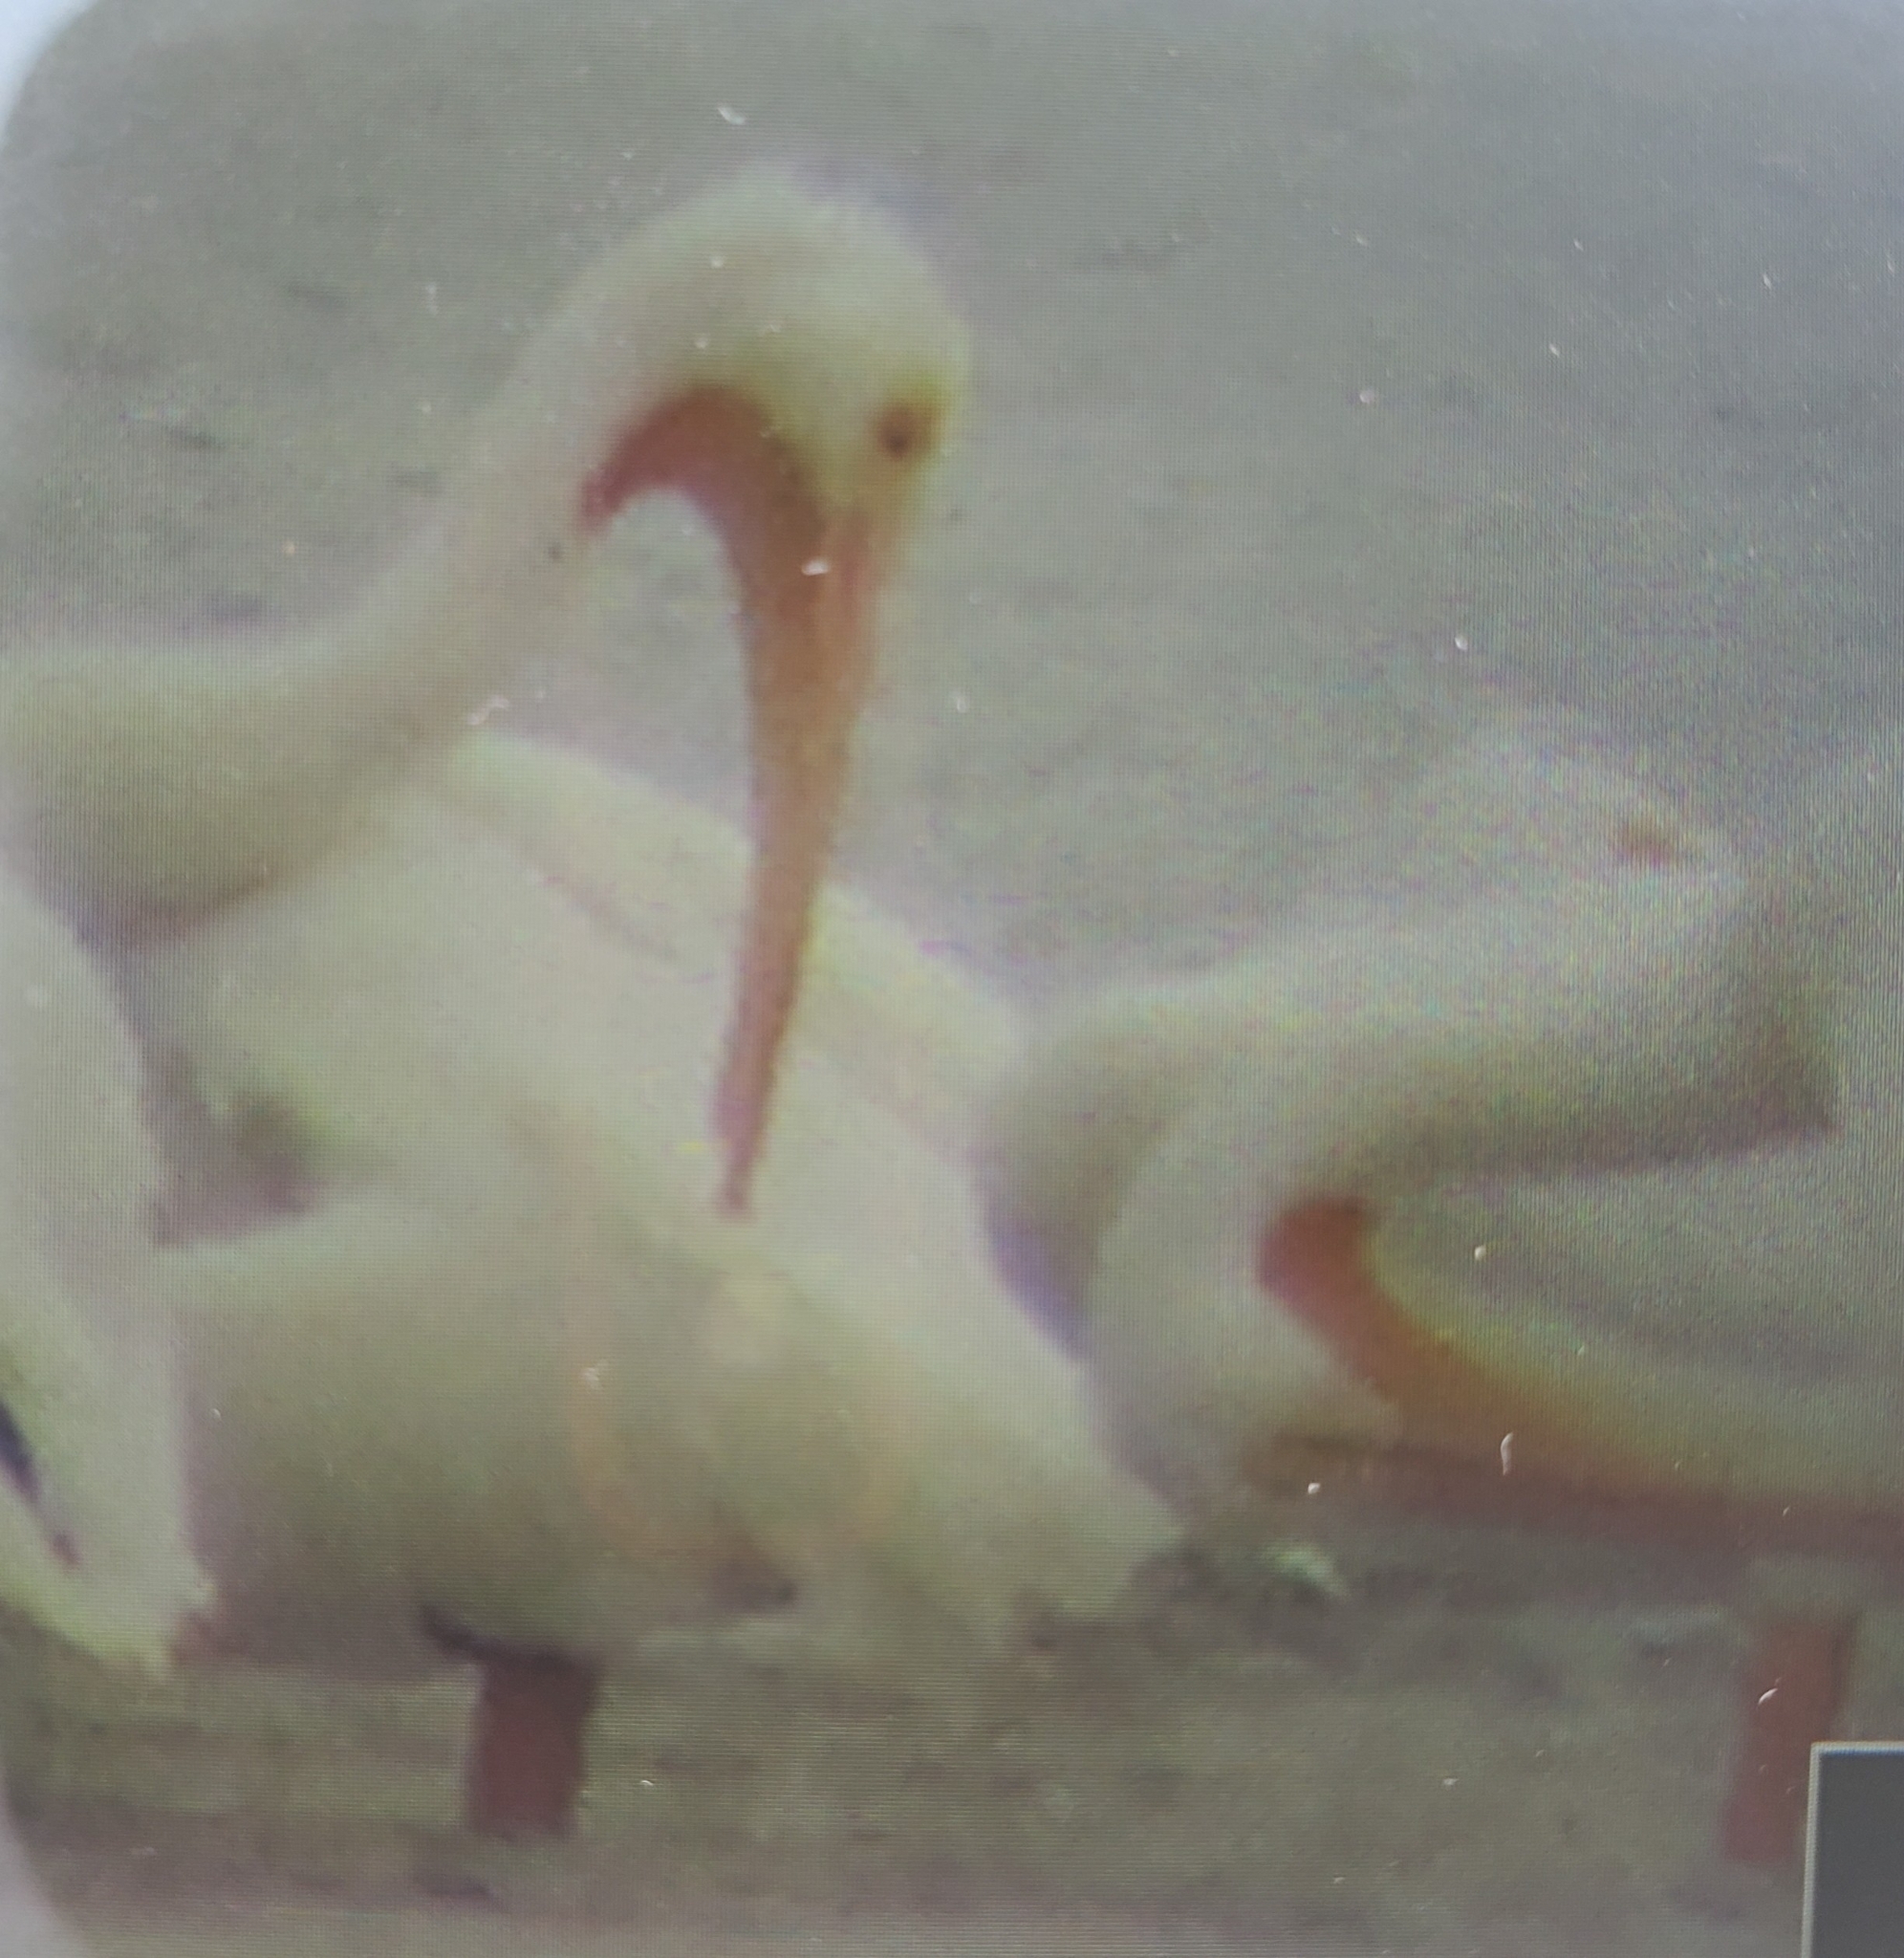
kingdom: Animalia
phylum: Chordata
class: Aves
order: Pelecaniformes
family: Pelecanidae
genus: Pelecanus
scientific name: Pelecanus erythrorhynchos
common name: American white pelican
